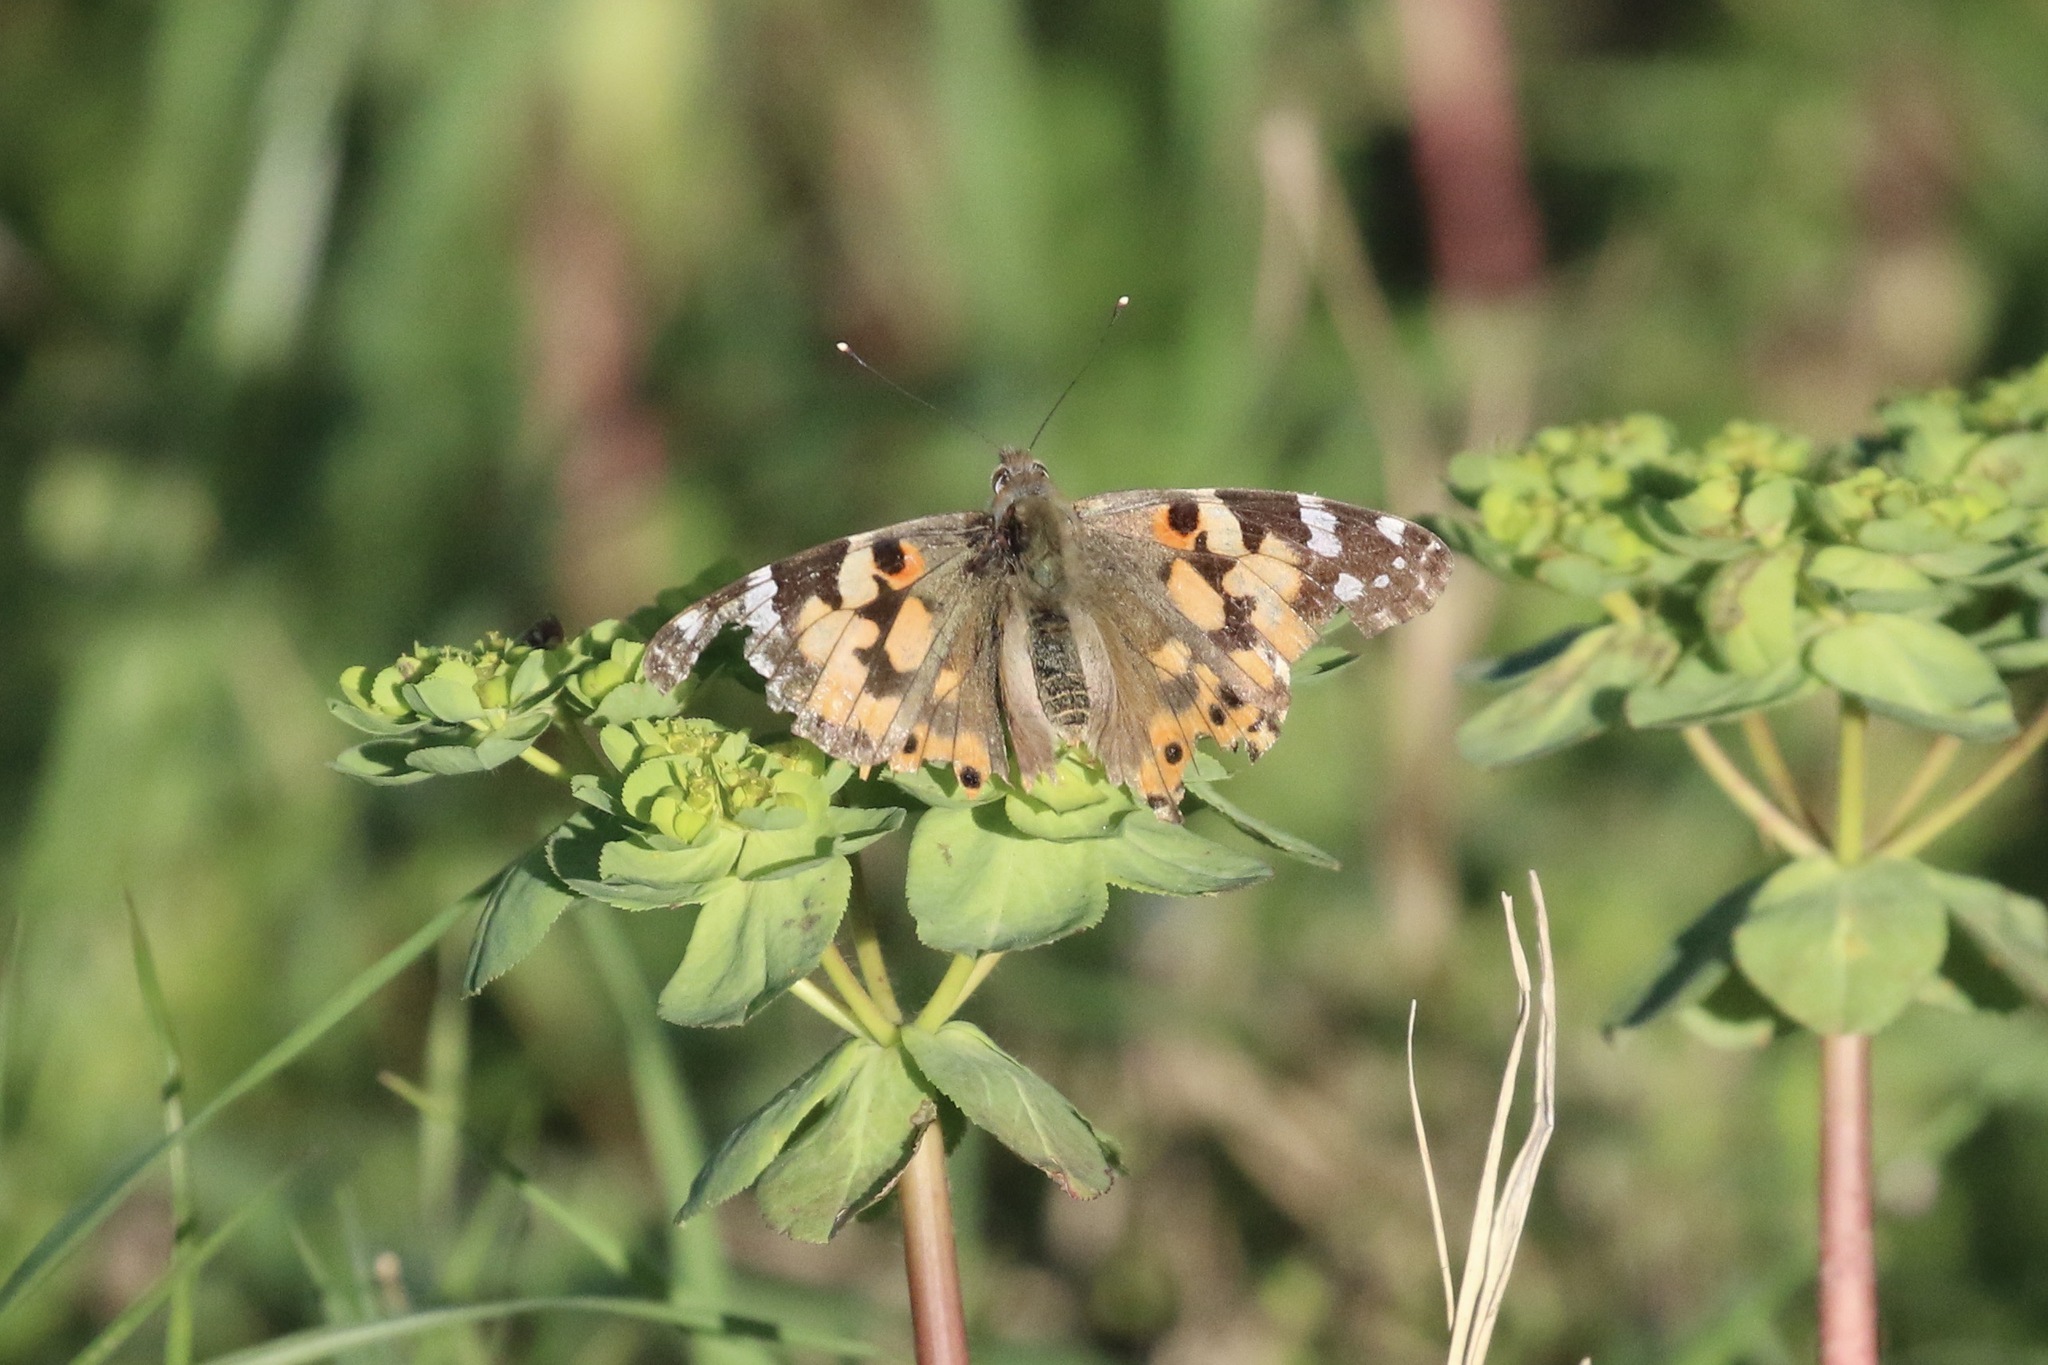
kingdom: Animalia
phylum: Arthropoda
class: Insecta
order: Lepidoptera
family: Nymphalidae
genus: Vanessa
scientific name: Vanessa cardui
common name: Painted lady
